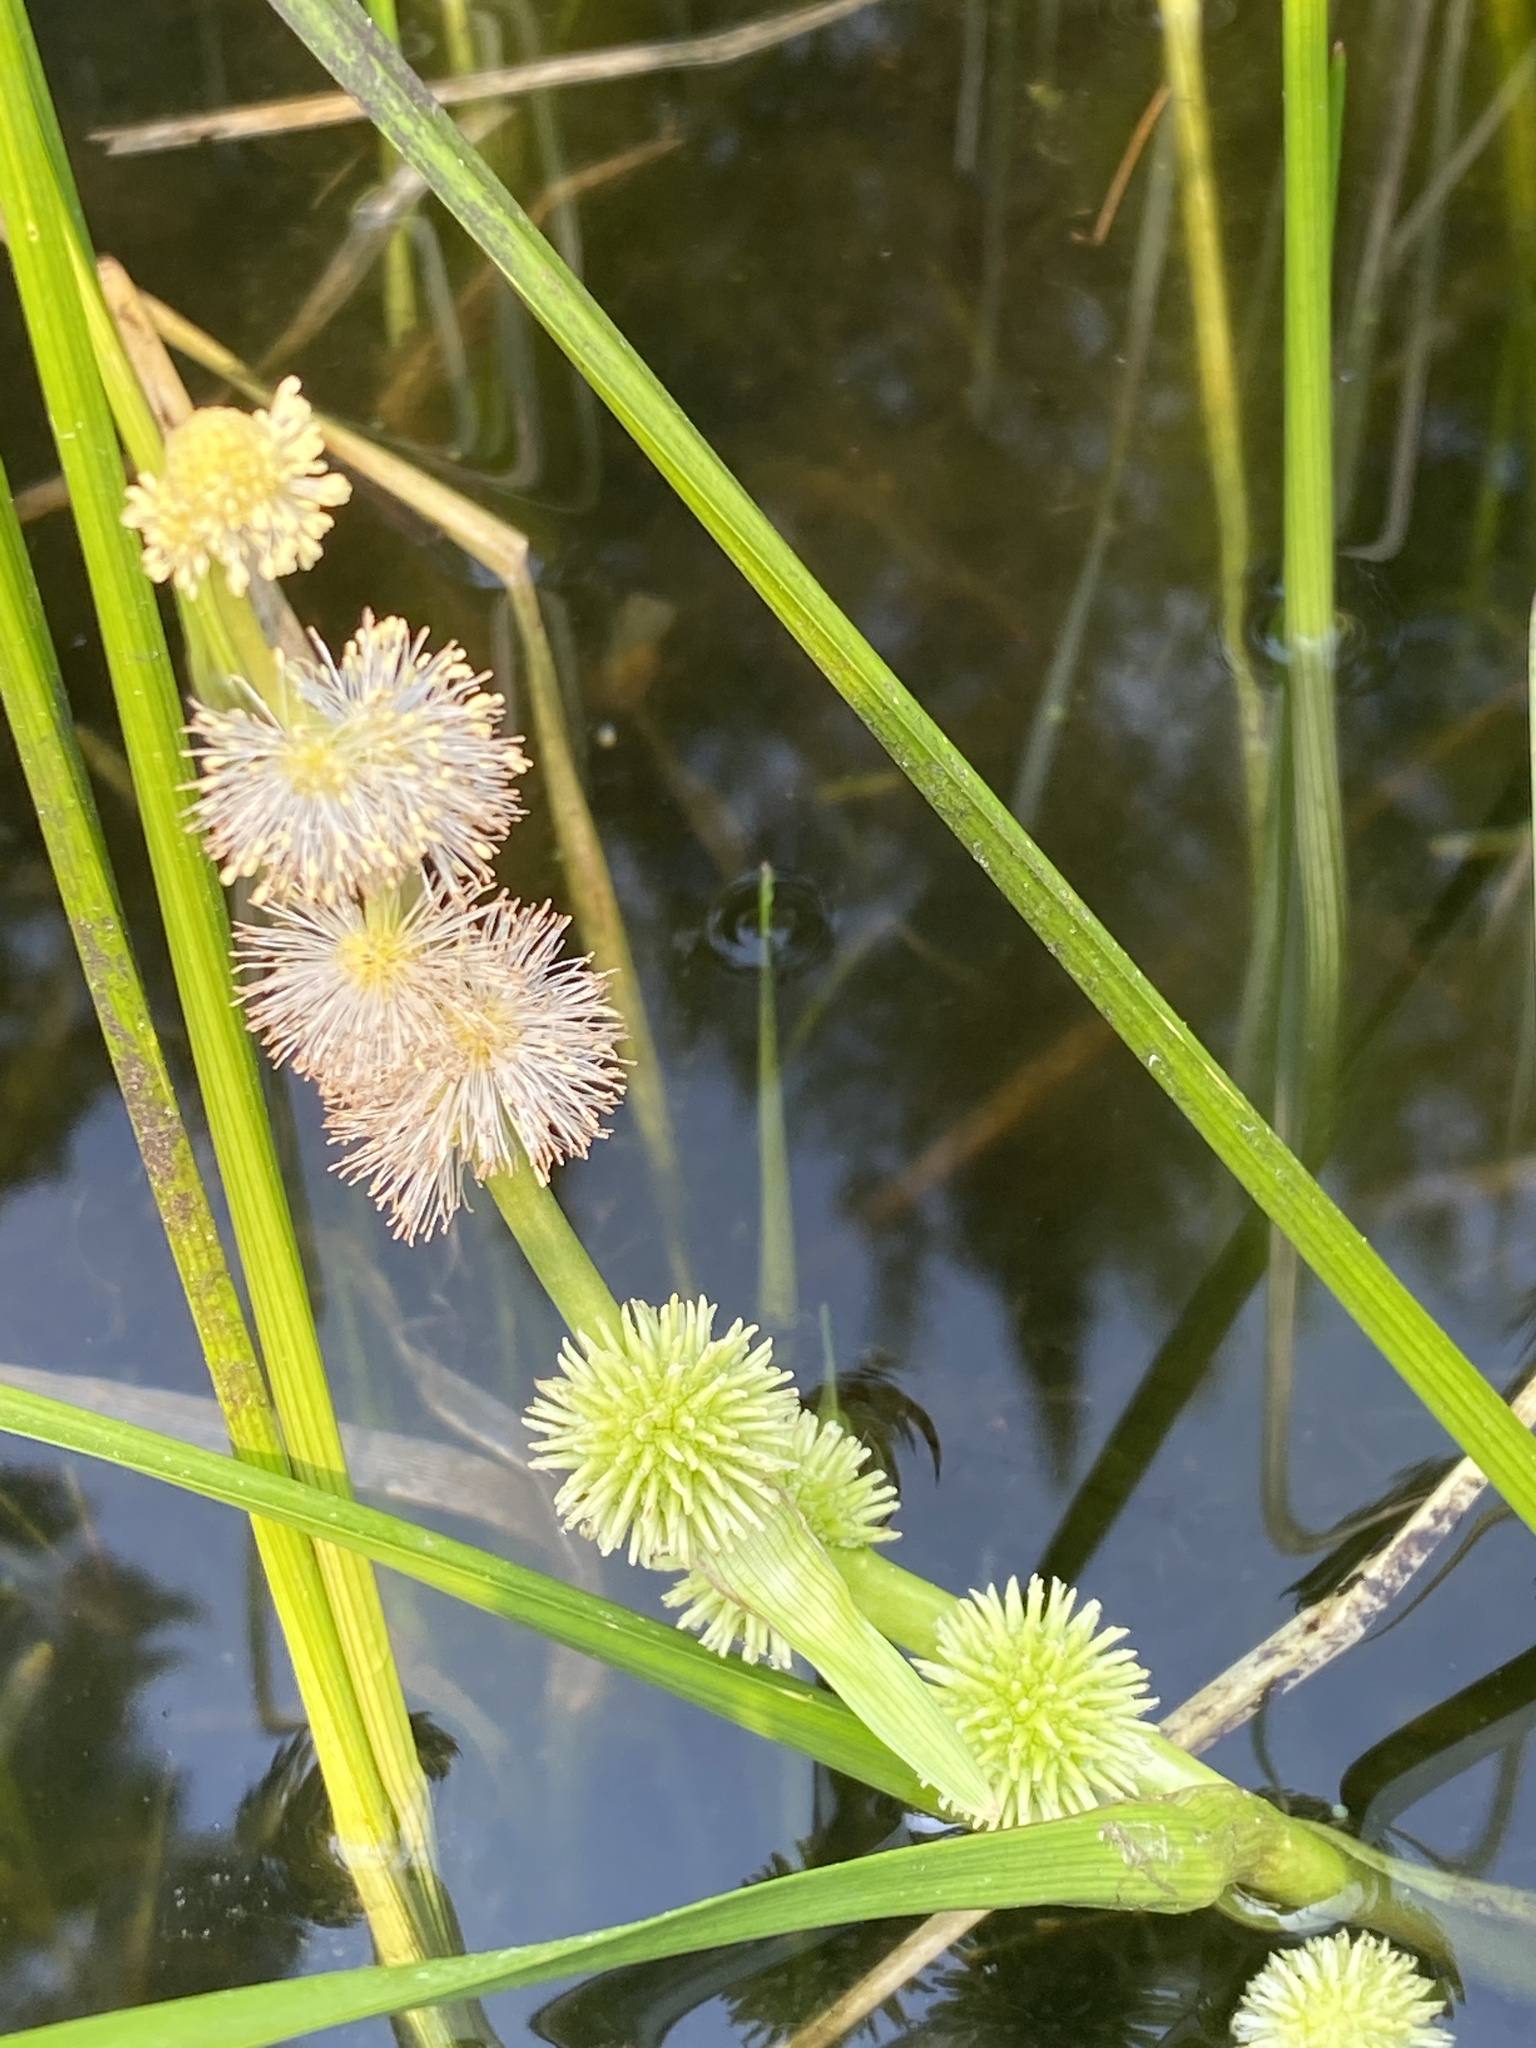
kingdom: Plantae
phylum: Tracheophyta
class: Liliopsida
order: Poales
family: Typhaceae
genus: Sparganium
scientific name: Sparganium emersum
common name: Unbranched bur-reed
